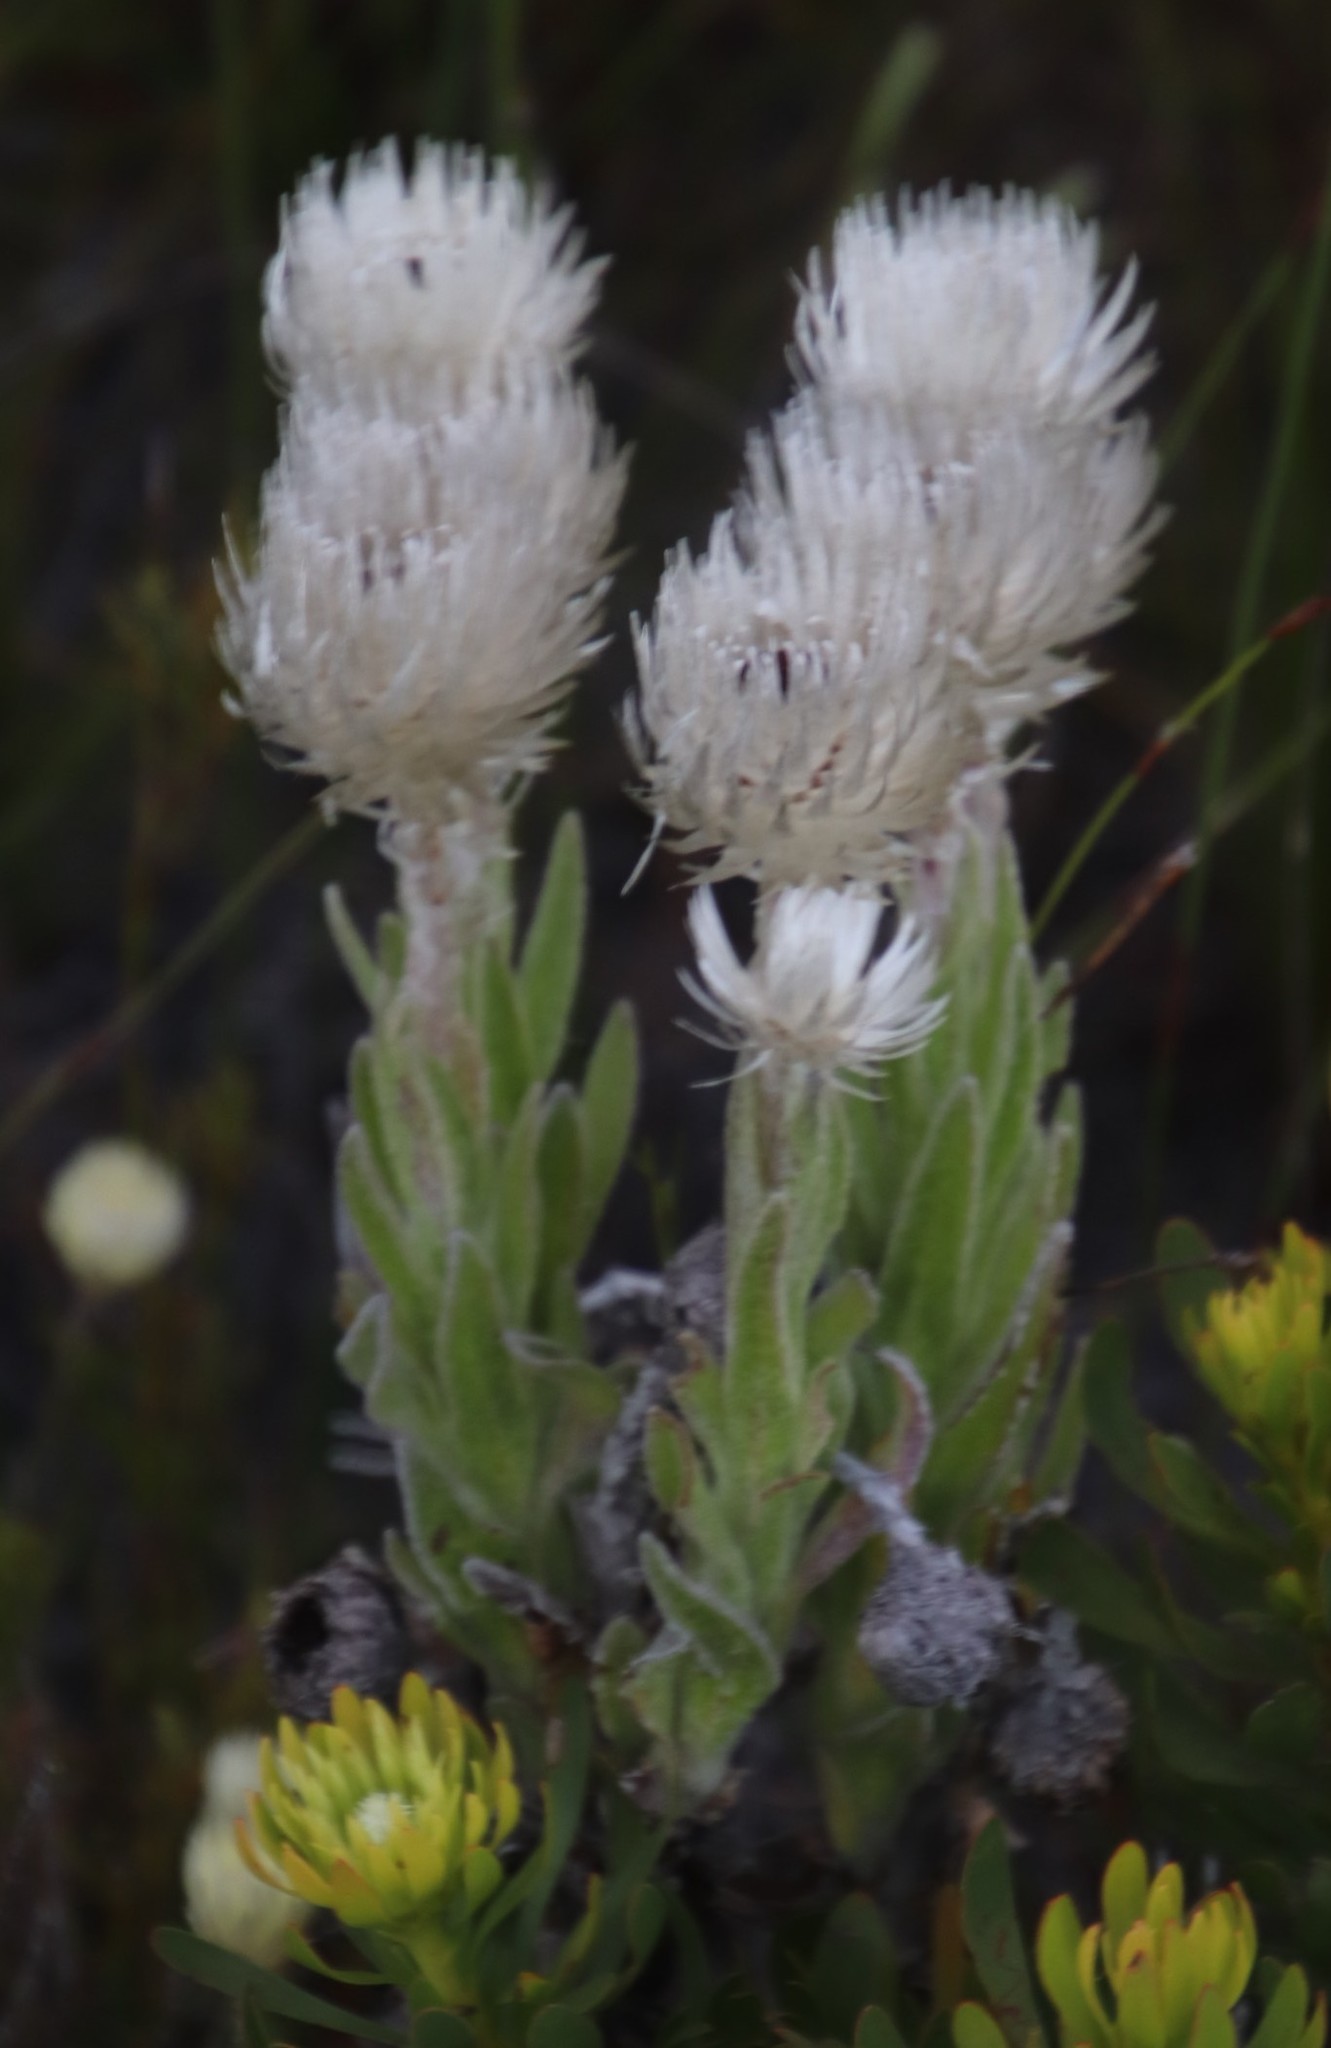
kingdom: Plantae
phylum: Tracheophyta
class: Magnoliopsida
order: Asterales
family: Asteraceae
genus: Syncarpha
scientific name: Syncarpha vestita
